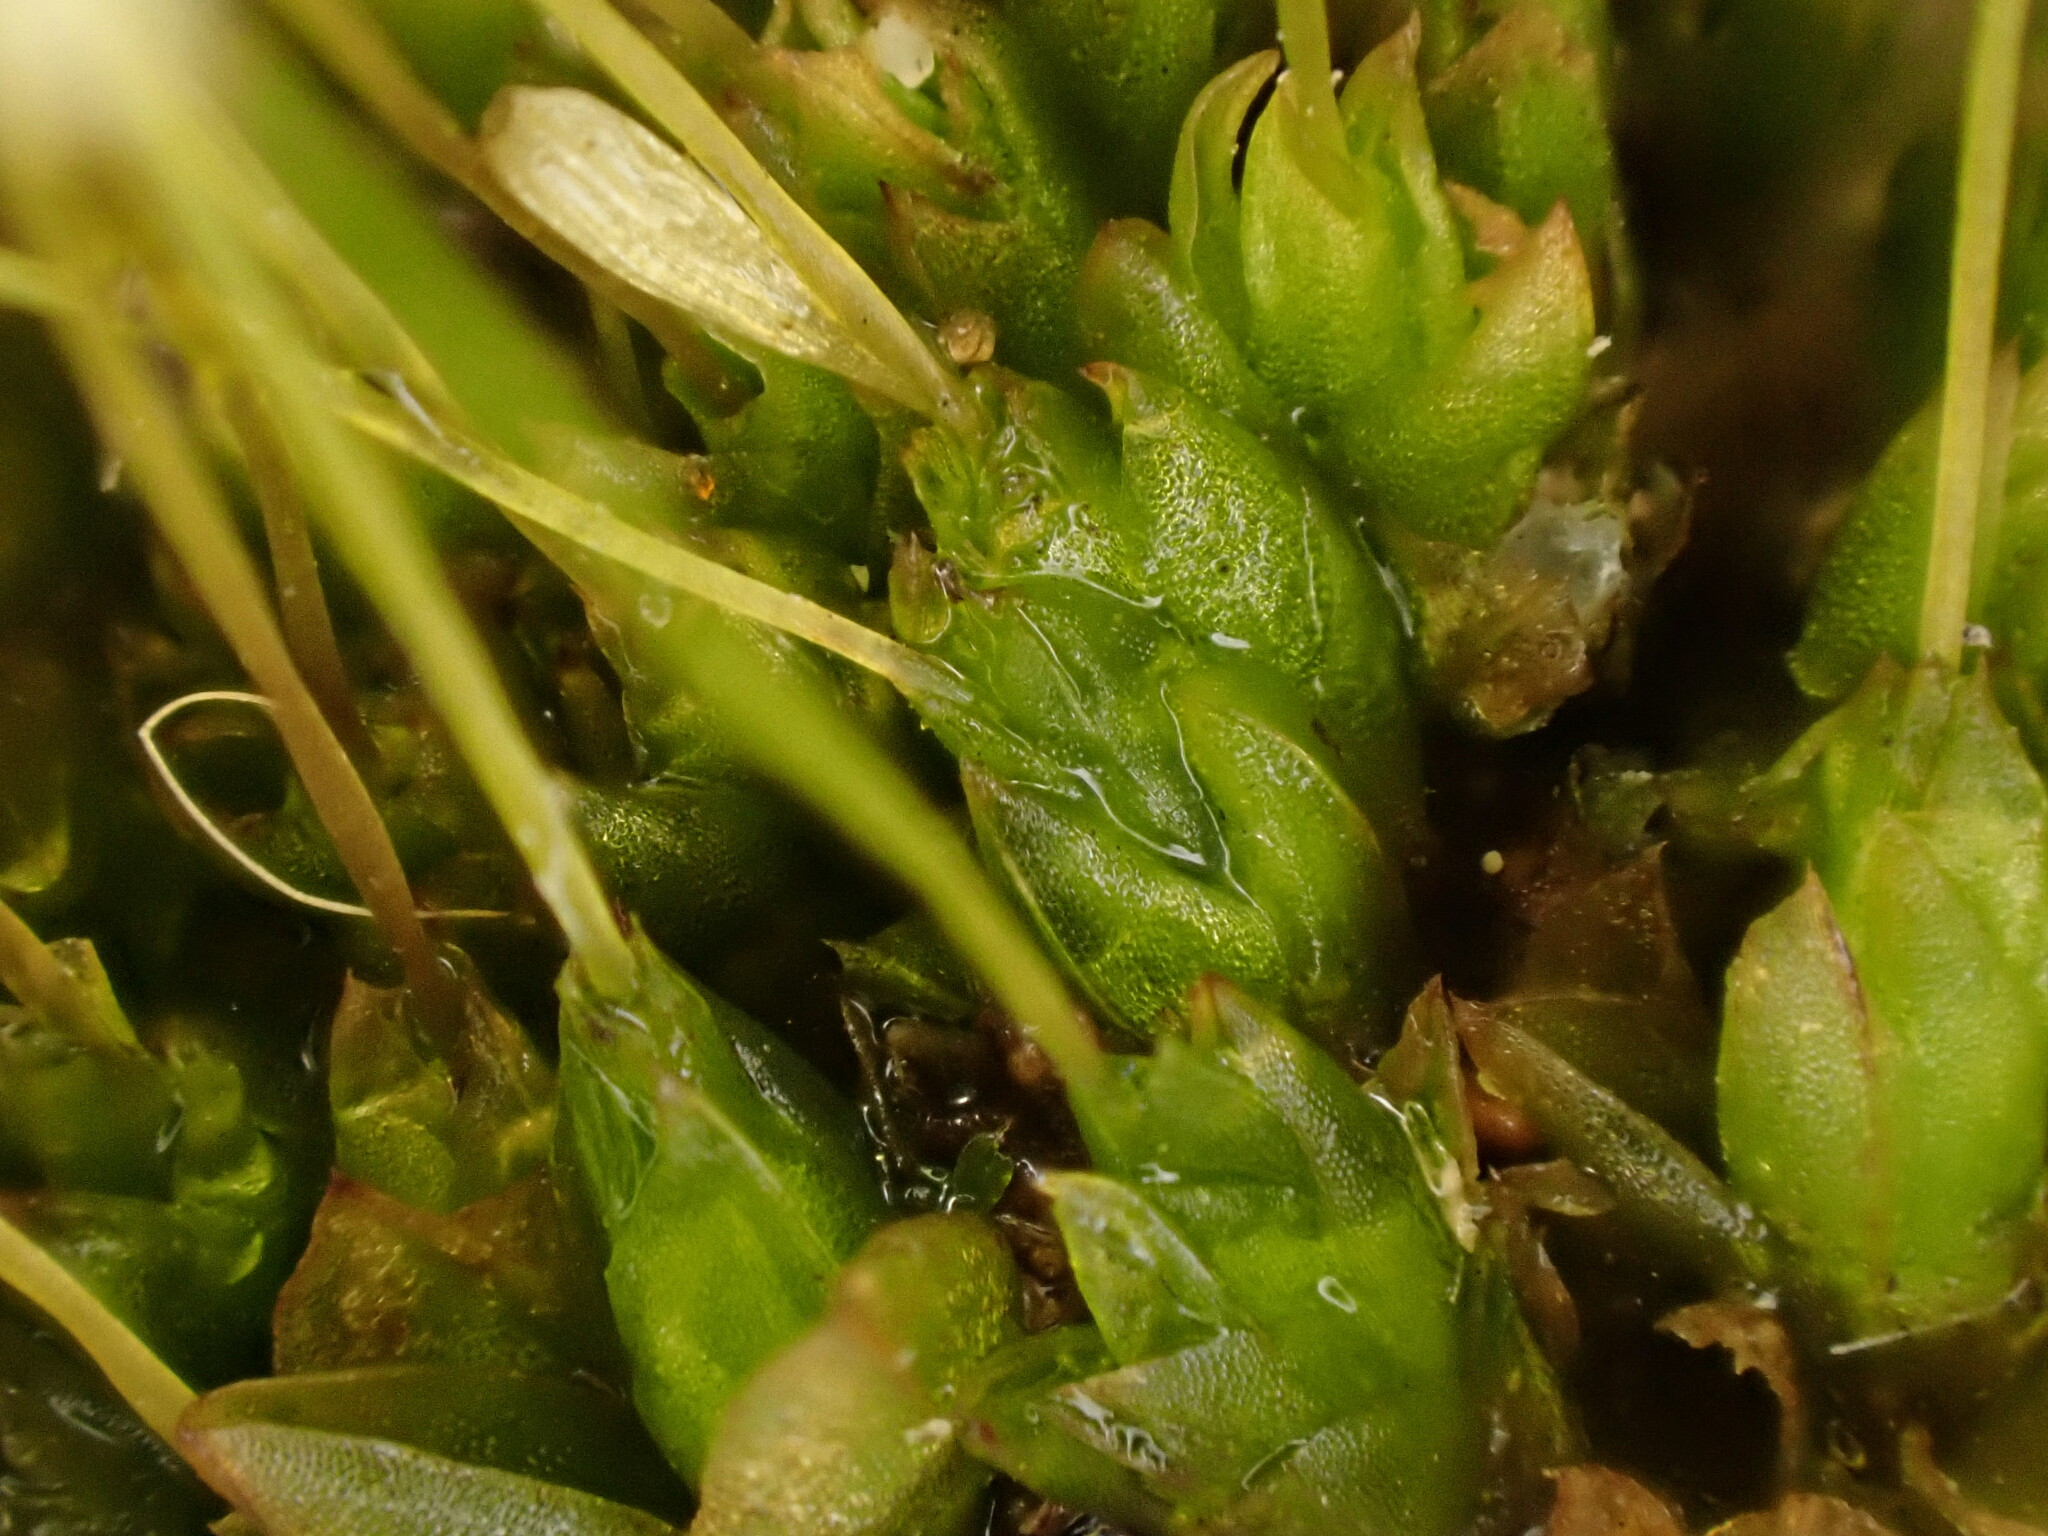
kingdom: Plantae
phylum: Bryophyta
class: Bryopsida
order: Funariales
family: Funariaceae
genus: Funaria
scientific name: Funaria hygrometrica
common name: Common cord moss
